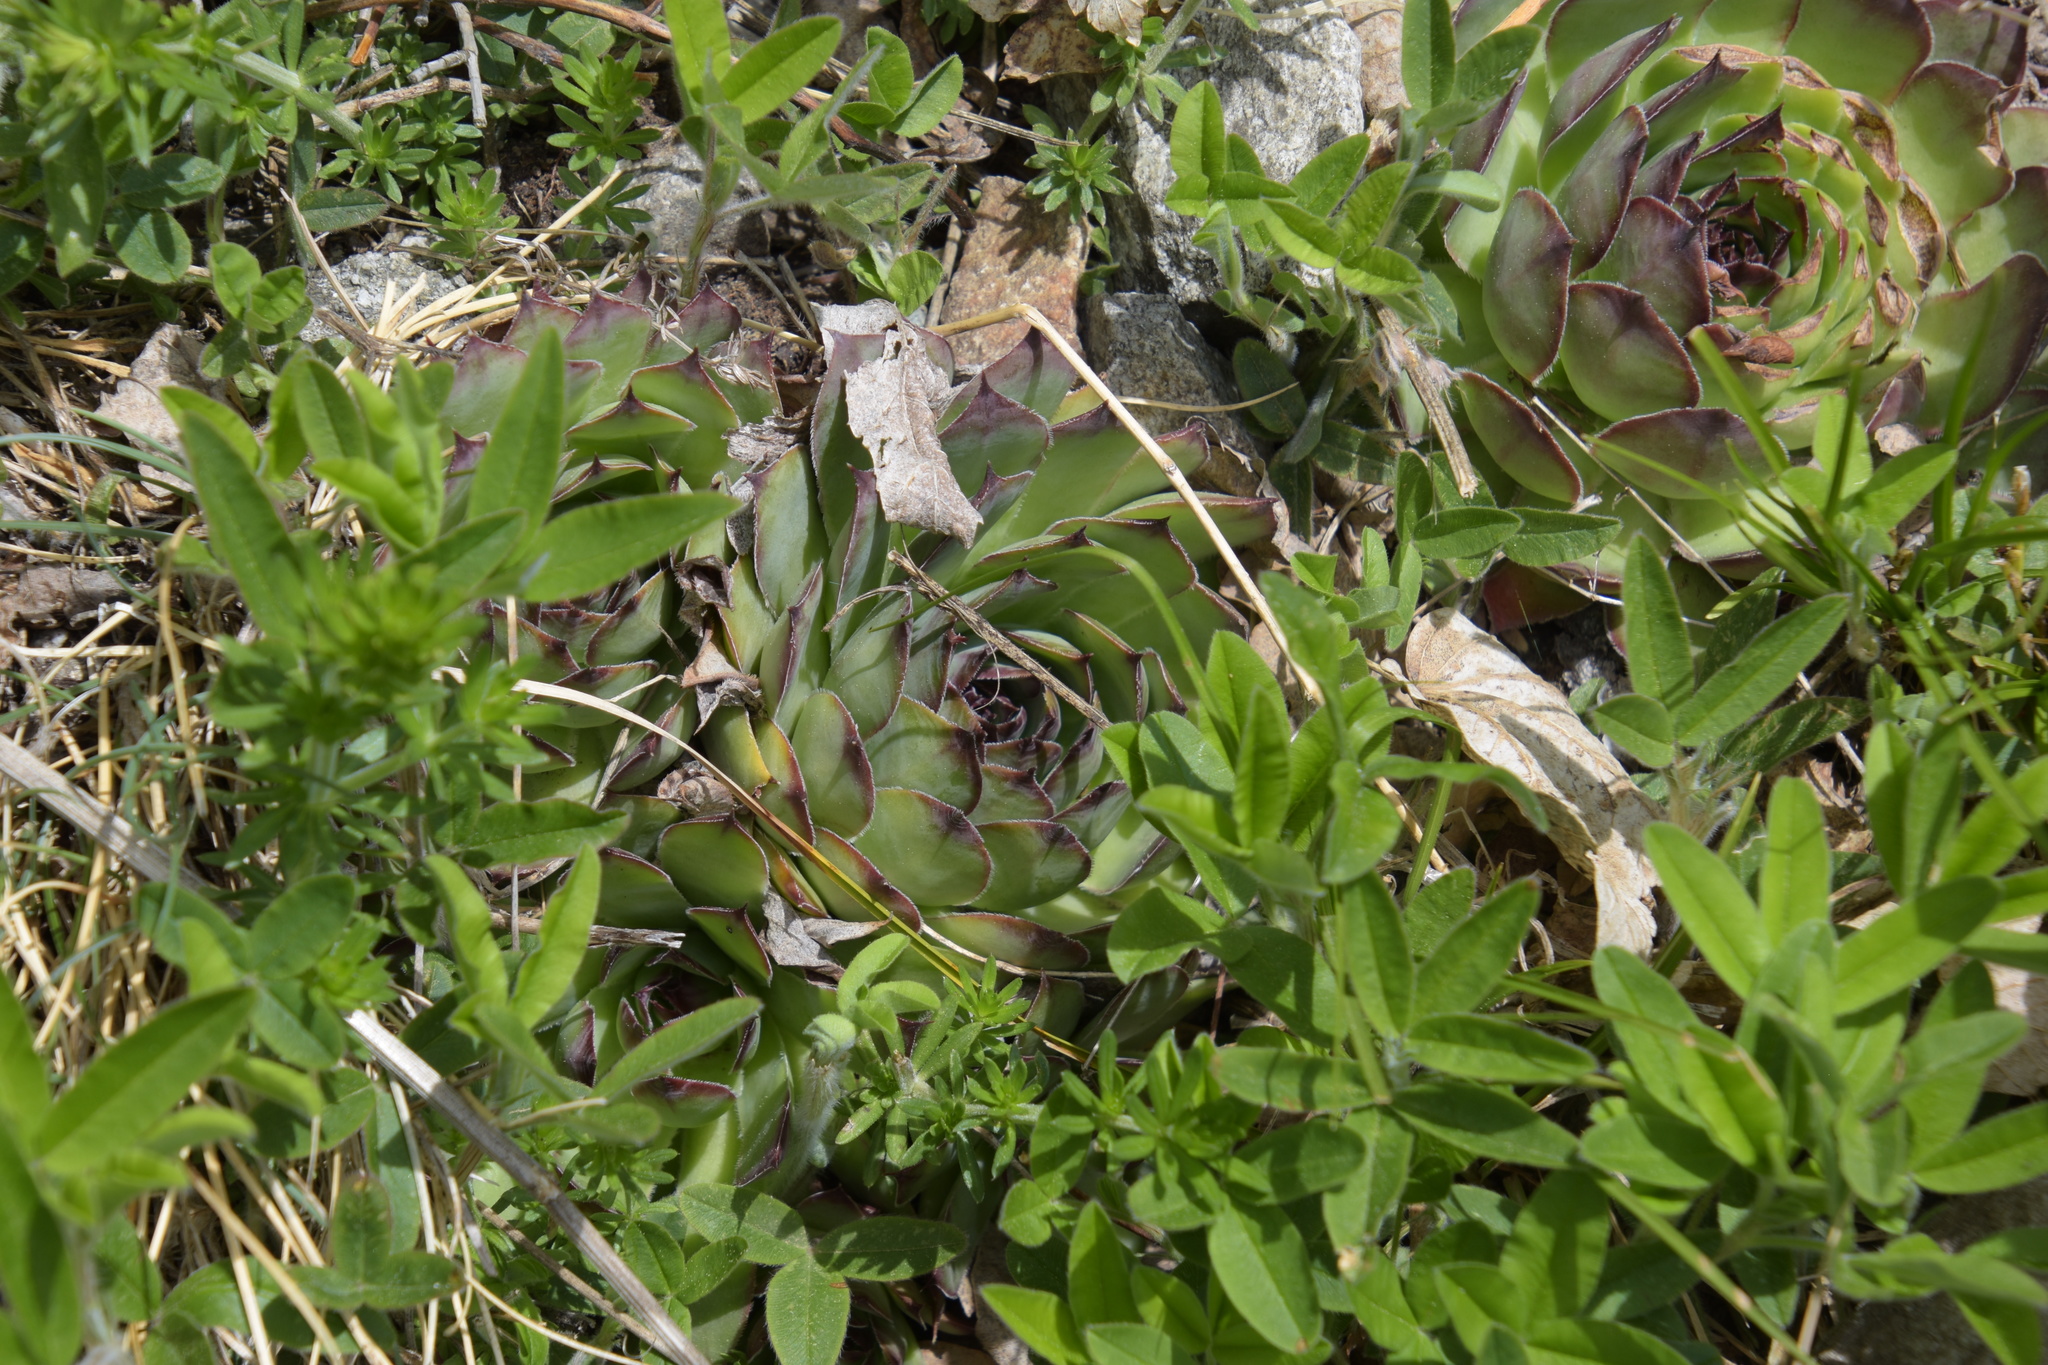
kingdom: Plantae
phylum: Tracheophyta
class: Magnoliopsida
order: Saxifragales
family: Crassulaceae
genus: Sempervivum
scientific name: Sempervivum tectorum
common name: House-leek
